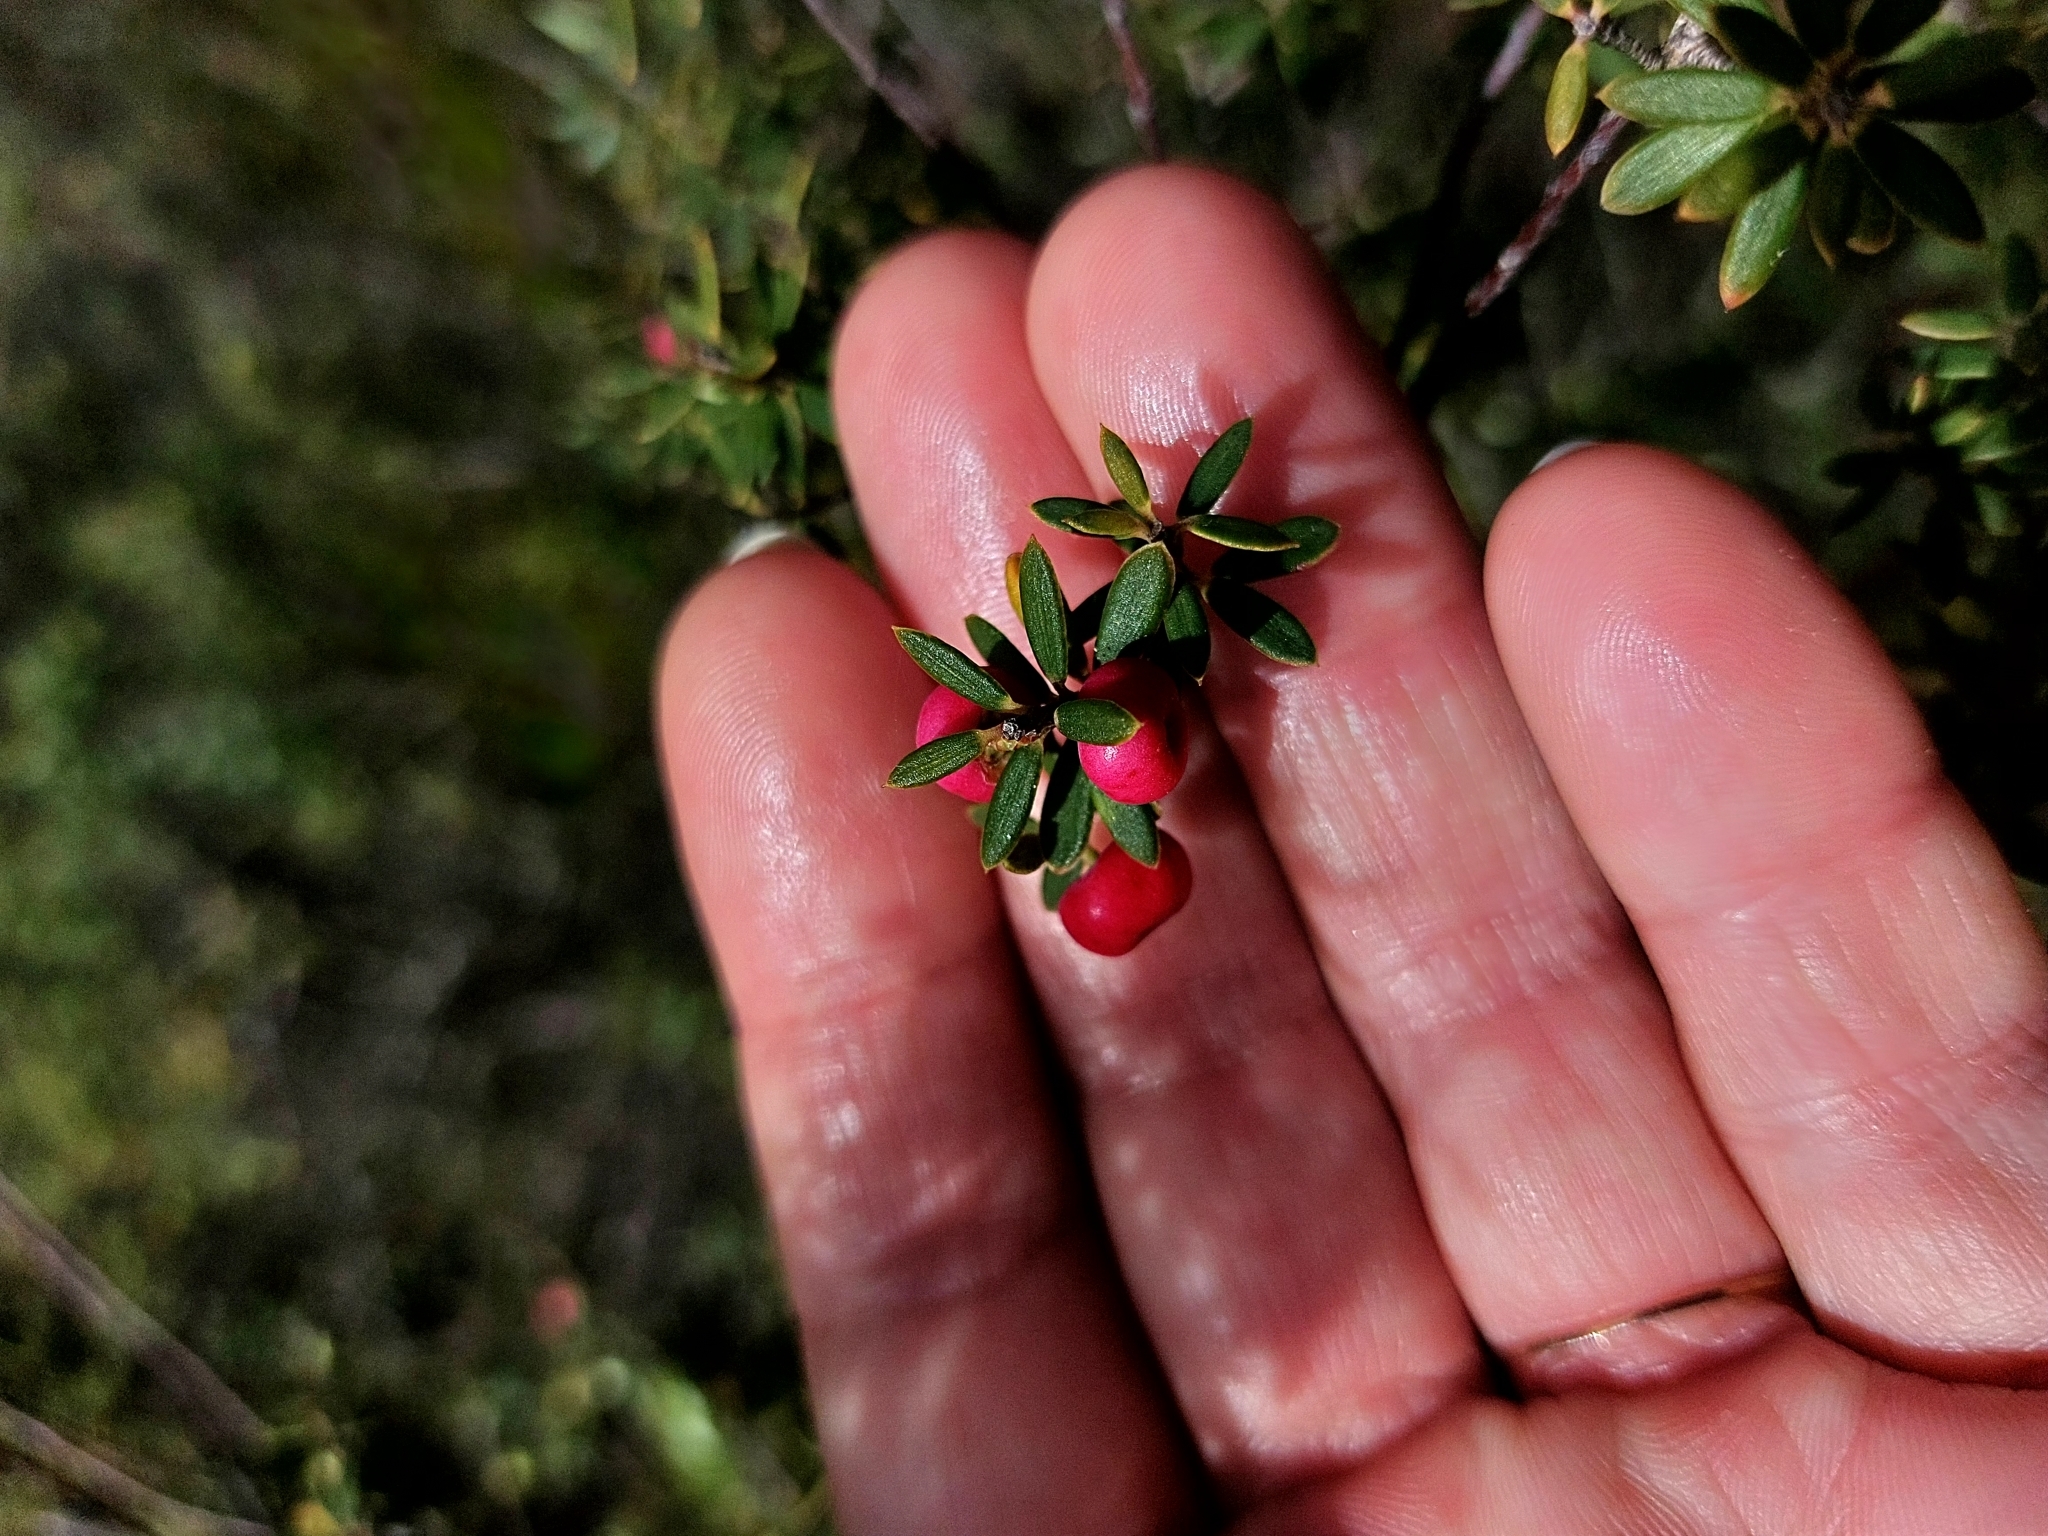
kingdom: Plantae
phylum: Tracheophyta
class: Magnoliopsida
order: Ericales
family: Ericaceae
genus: Leptecophylla
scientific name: Leptecophylla tameiameiae
